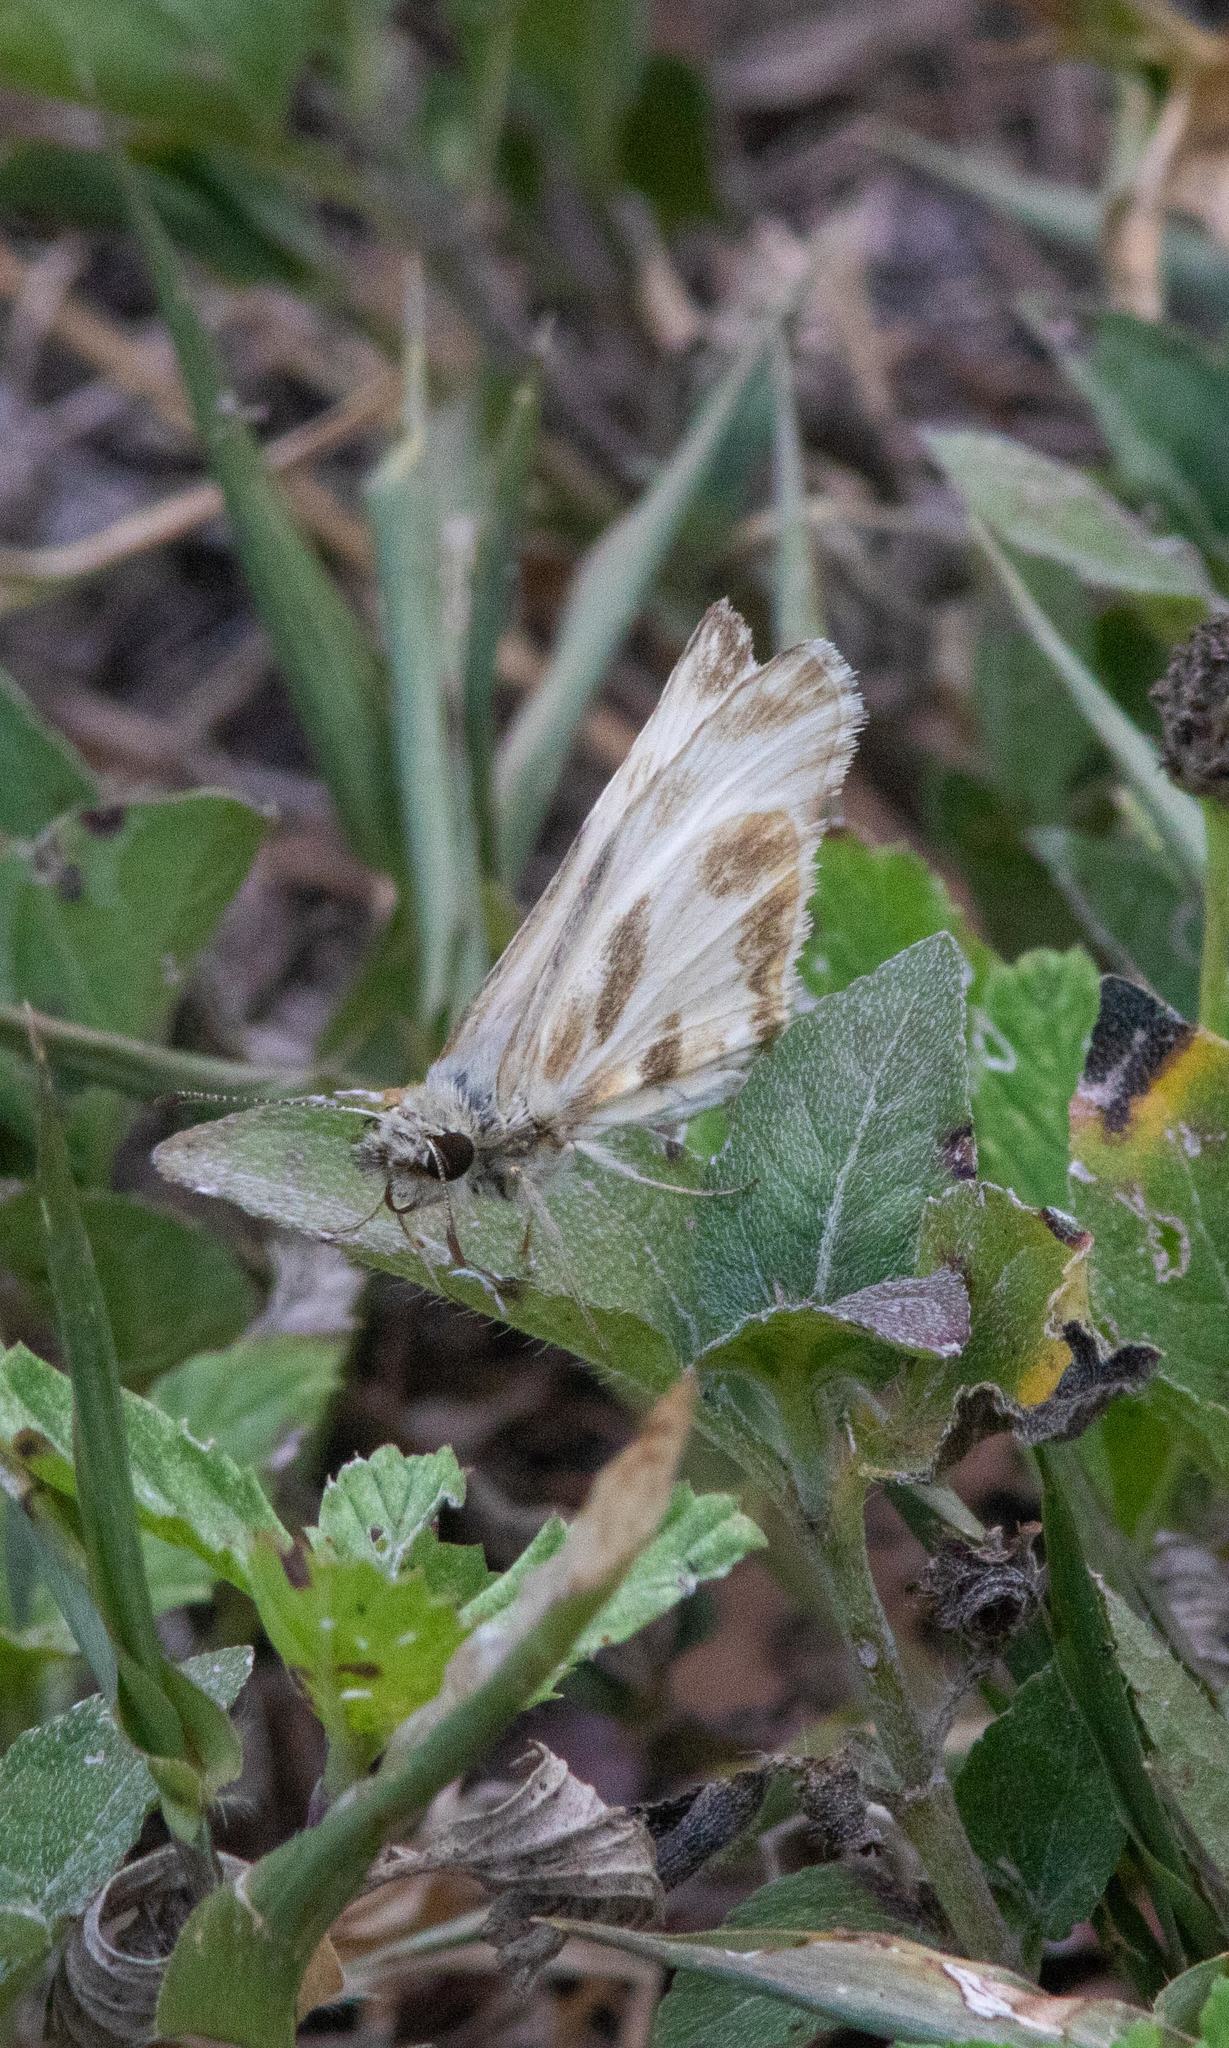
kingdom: Animalia
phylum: Arthropoda
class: Insecta
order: Lepidoptera
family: Hesperiidae
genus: Heliopetes
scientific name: Heliopetes macaira
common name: Turk's-cap white-skipper
